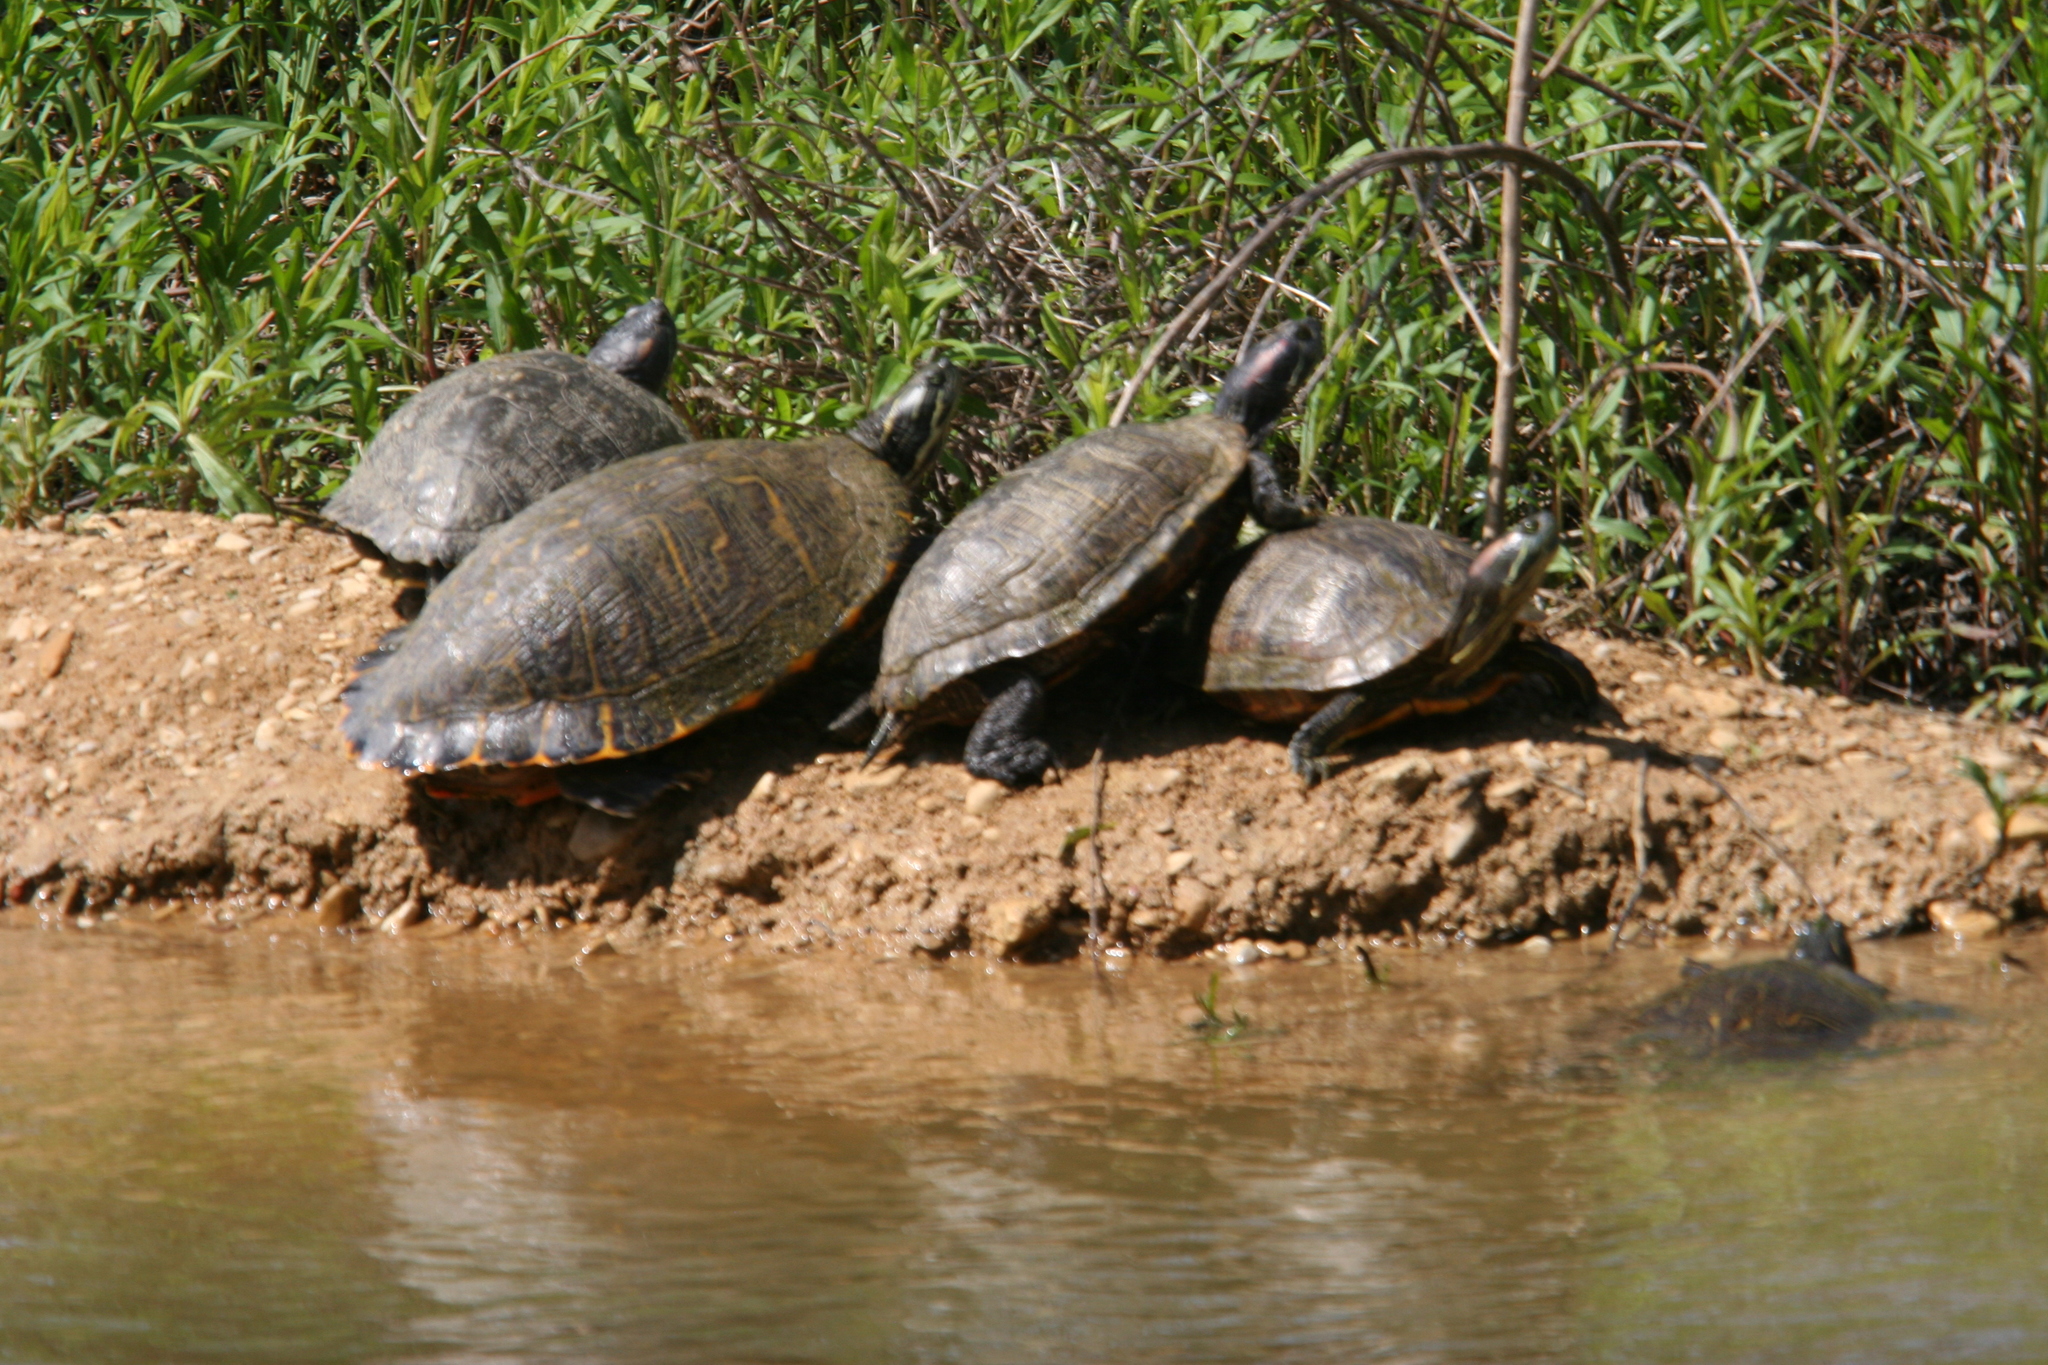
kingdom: Animalia
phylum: Chordata
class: Testudines
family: Emydidae
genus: Trachemys
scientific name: Trachemys scripta
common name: Slider
